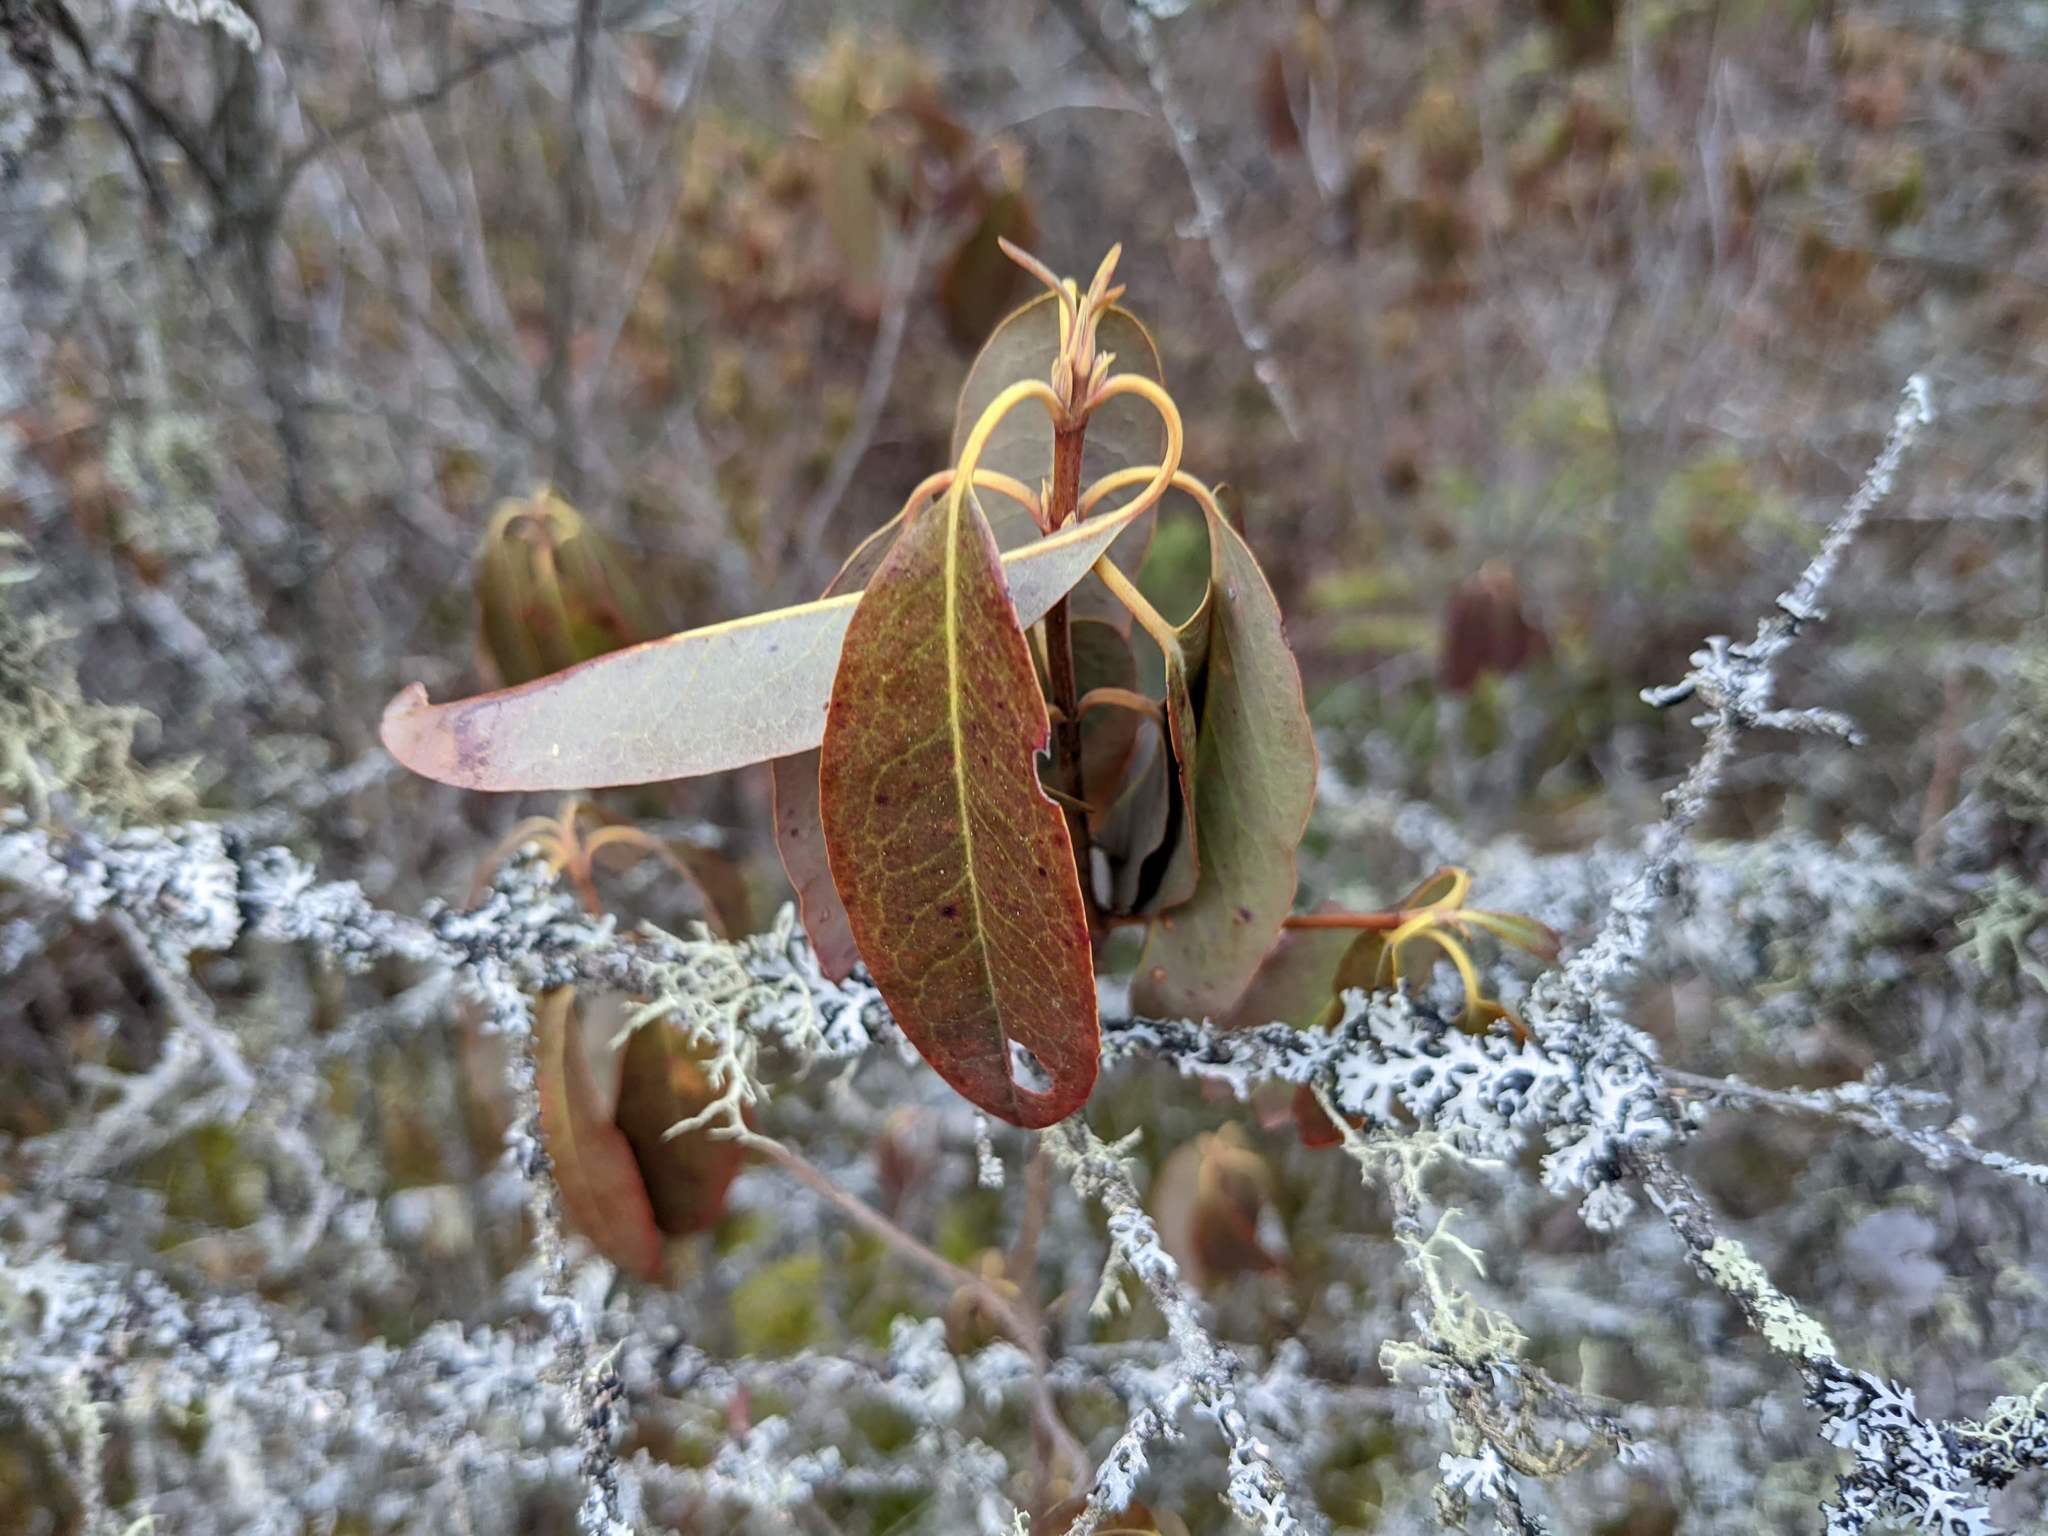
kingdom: Plantae
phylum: Tracheophyta
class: Magnoliopsida
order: Ericales
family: Ericaceae
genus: Kalmia
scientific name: Kalmia angustifolia
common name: Sheep-laurel
